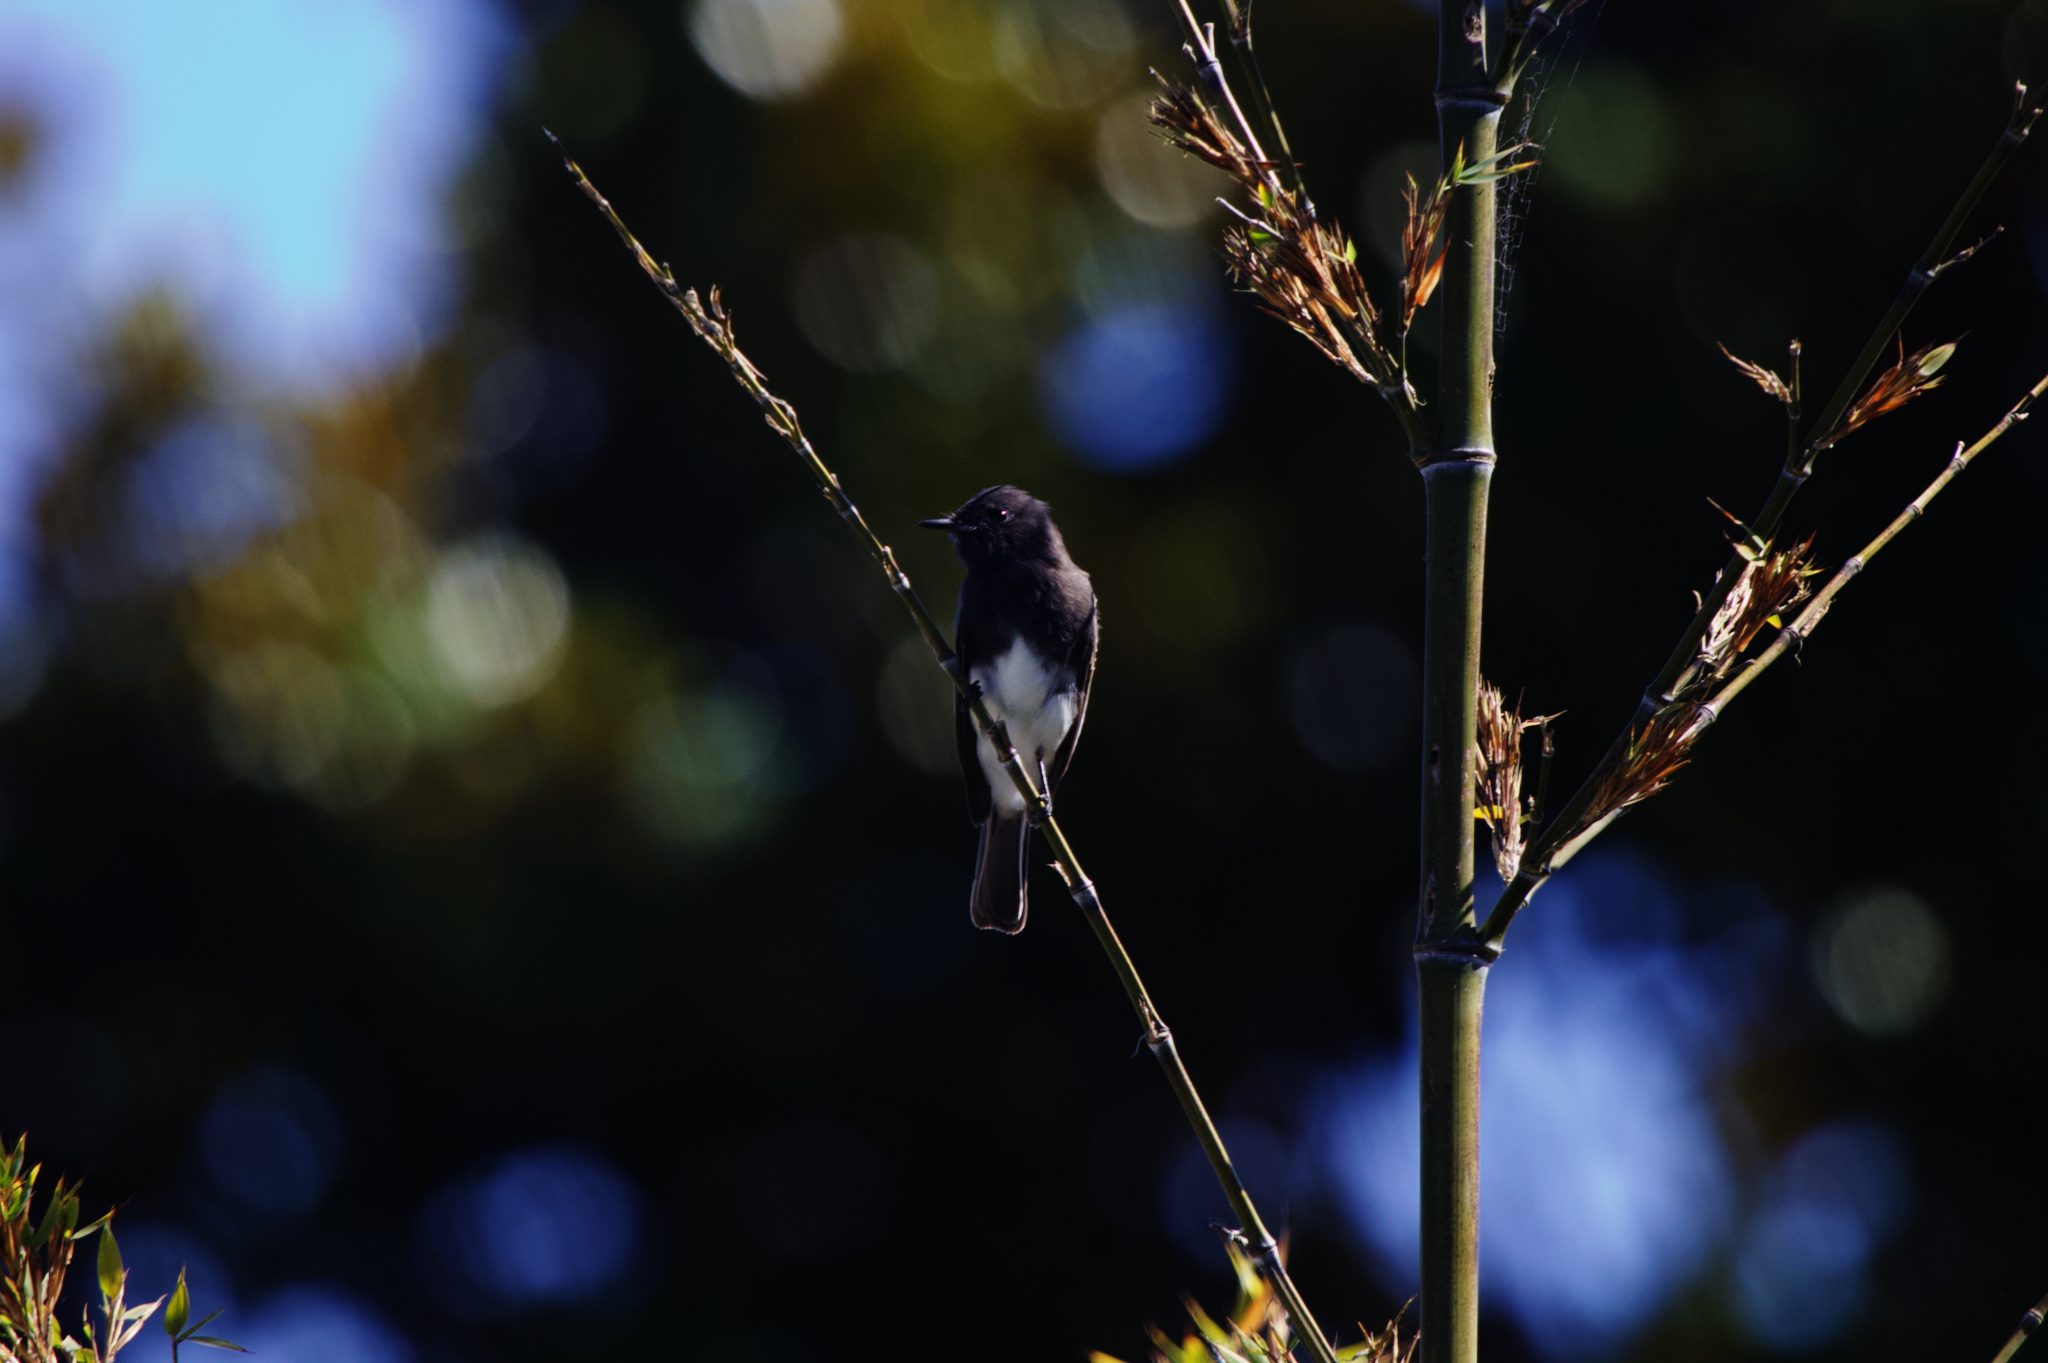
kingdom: Animalia
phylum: Chordata
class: Aves
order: Passeriformes
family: Tyrannidae
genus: Sayornis
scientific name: Sayornis nigricans
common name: Black phoebe
